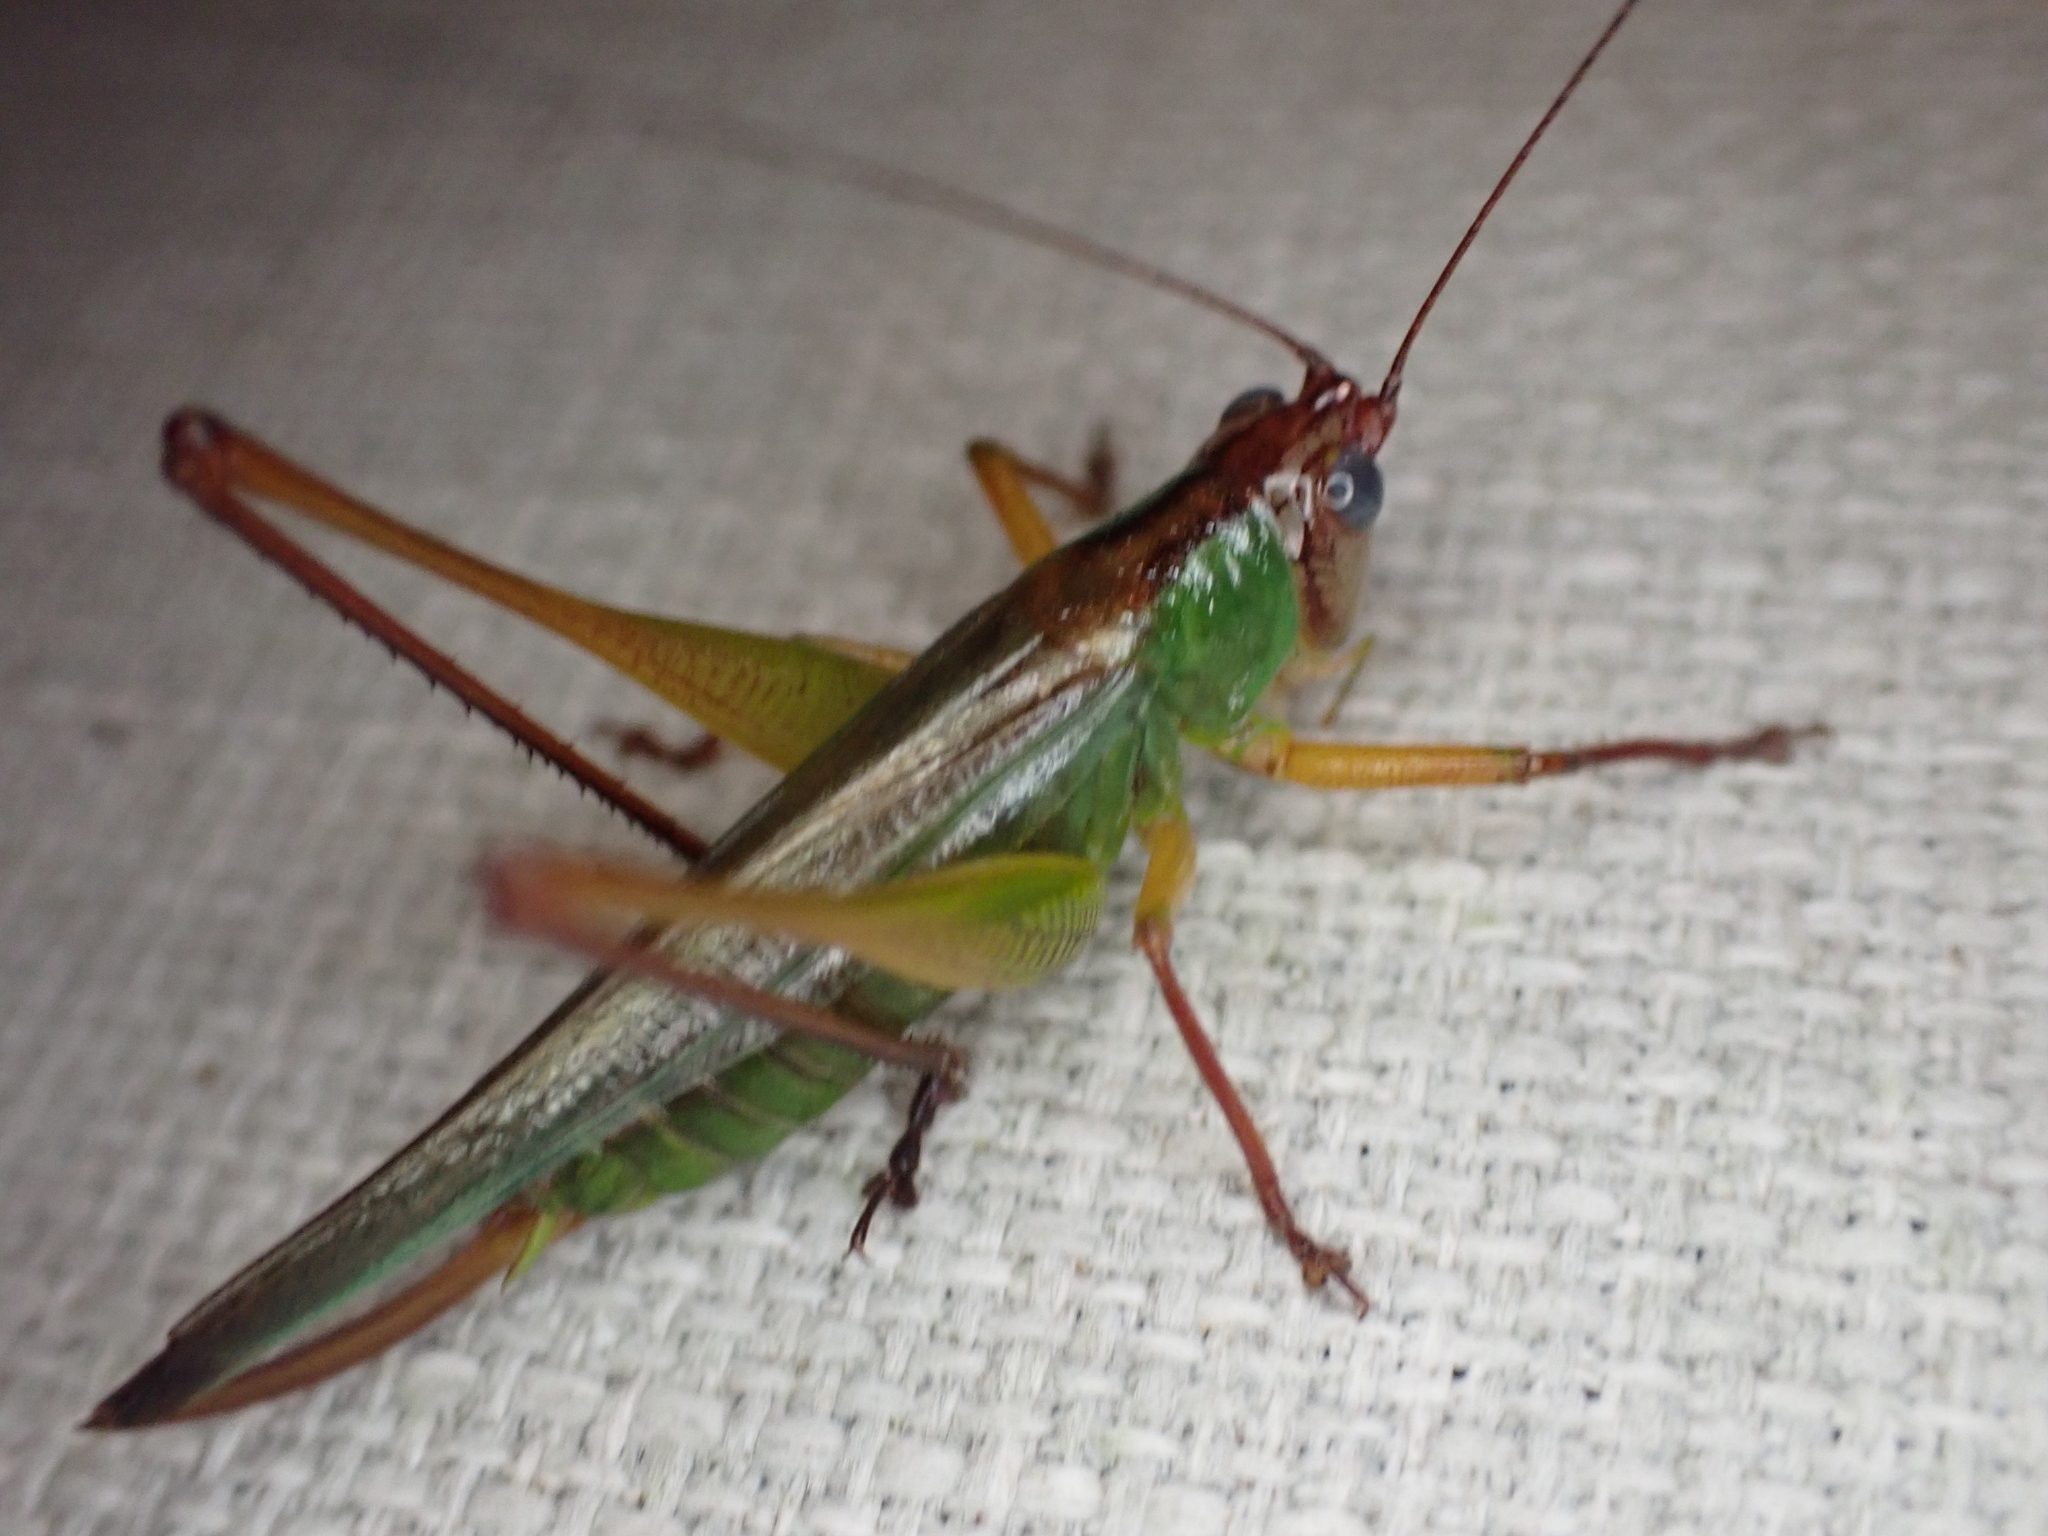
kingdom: Animalia
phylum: Arthropoda
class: Insecta
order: Orthoptera
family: Tettigoniidae
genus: Orchelimum
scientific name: Orchelimum pulchellum
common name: Handsome meadow katydid
